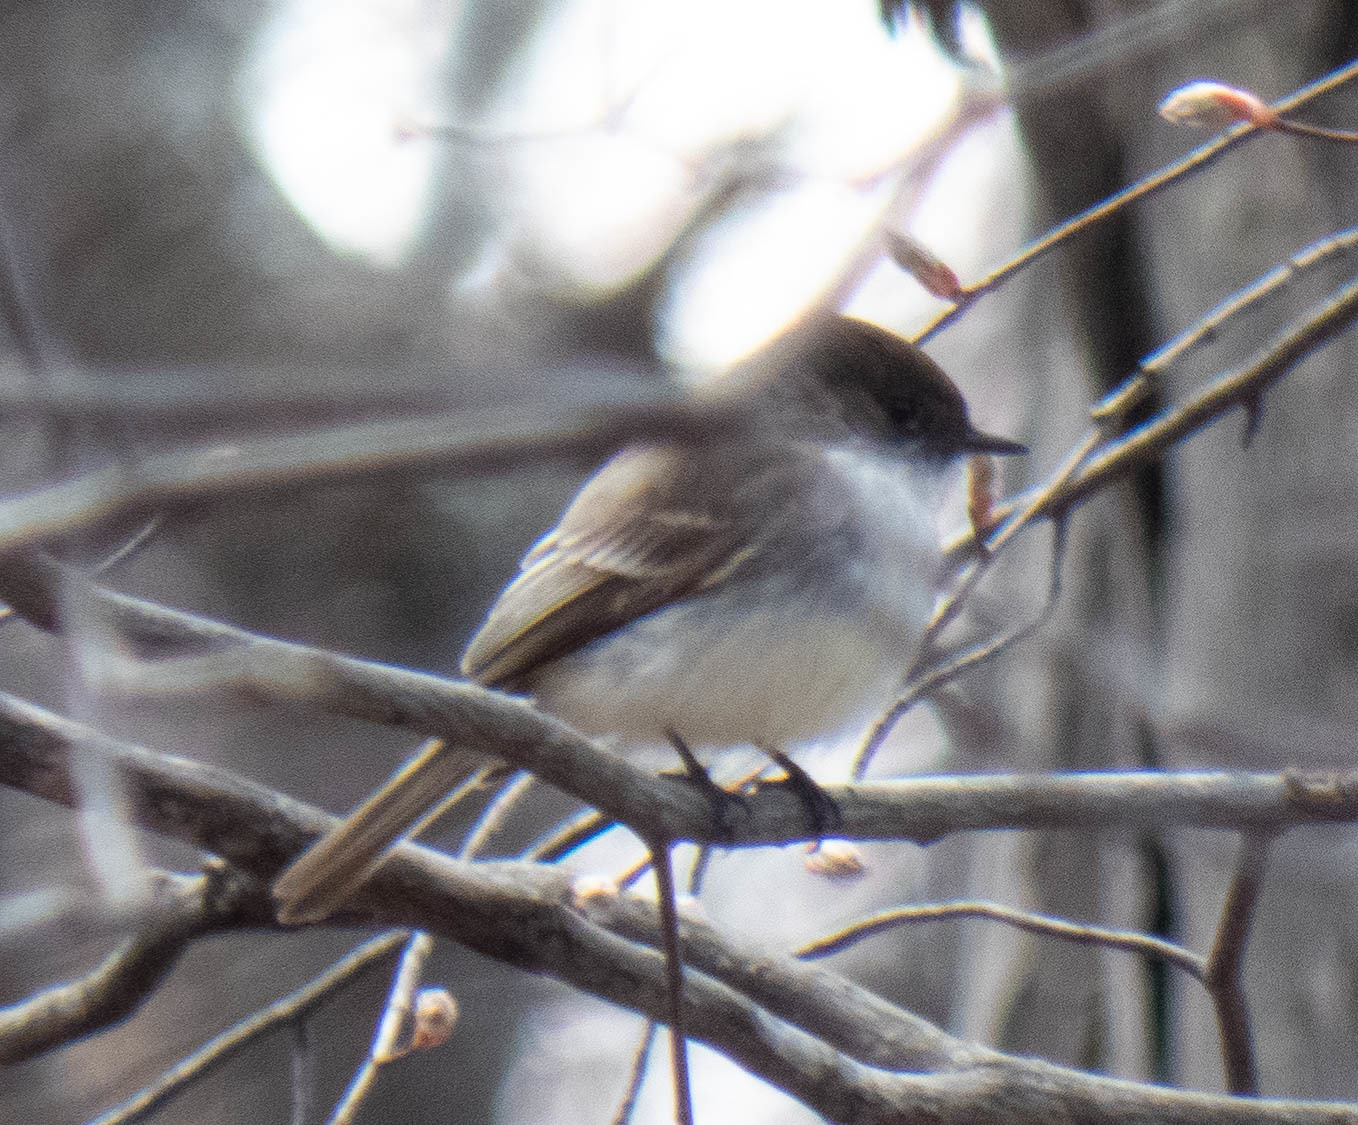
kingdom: Animalia
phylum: Chordata
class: Aves
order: Passeriformes
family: Tyrannidae
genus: Sayornis
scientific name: Sayornis phoebe
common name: Eastern phoebe
